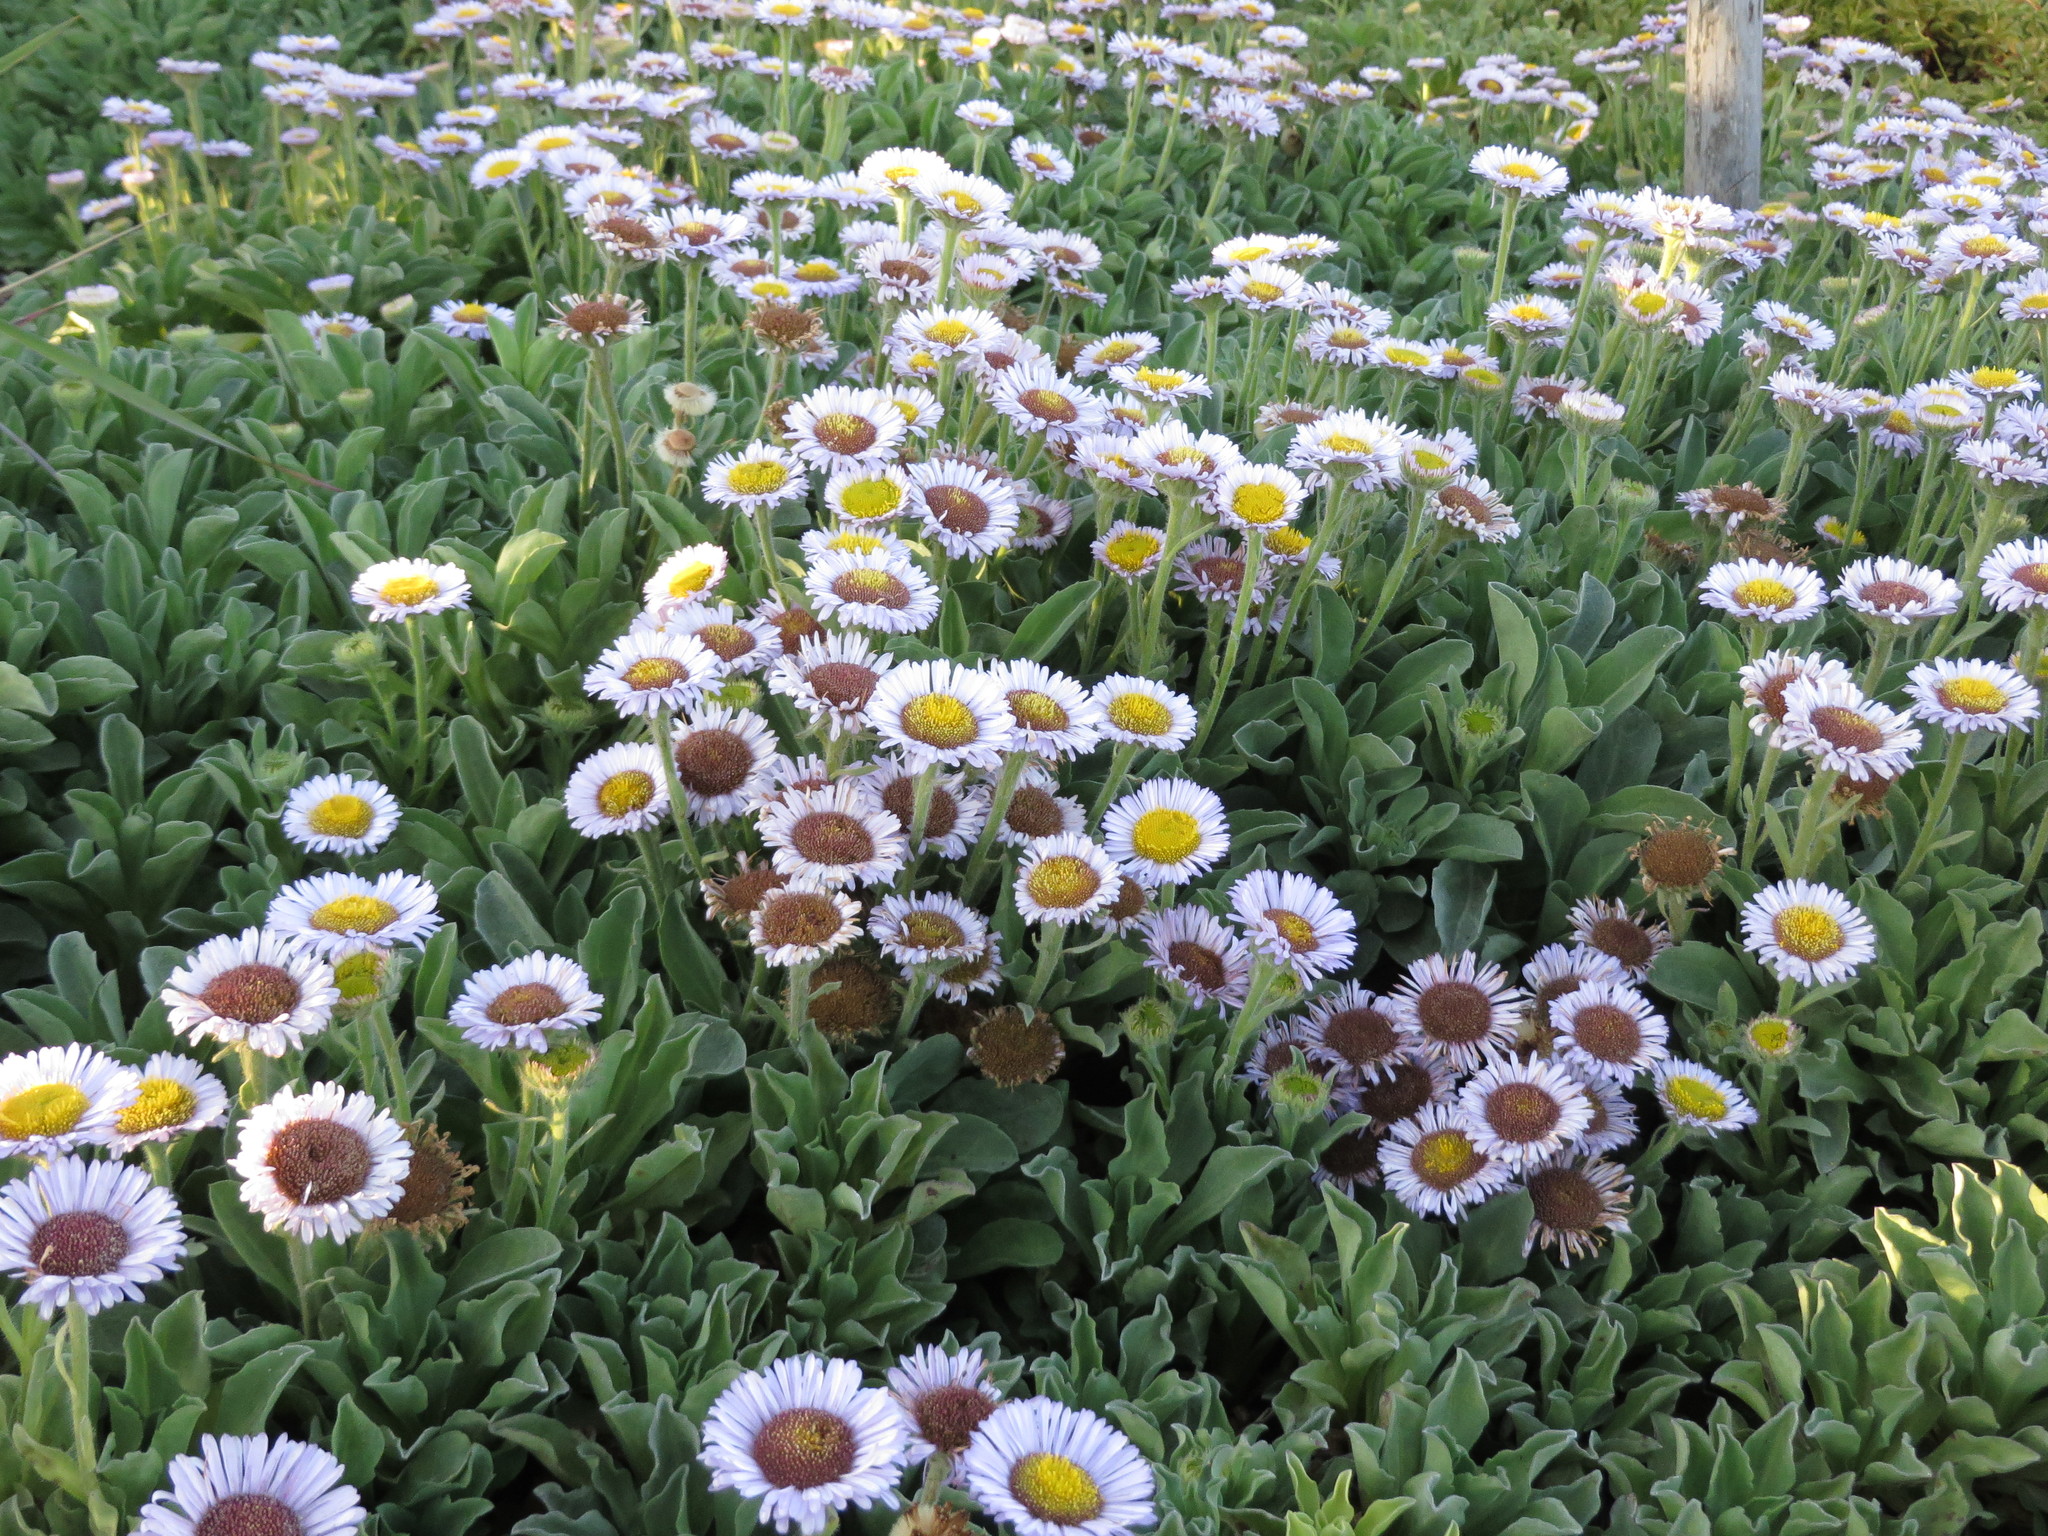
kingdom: Plantae
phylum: Tracheophyta
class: Magnoliopsida
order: Asterales
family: Asteraceae
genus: Erigeron
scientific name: Erigeron glaucus
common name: Seaside daisy
